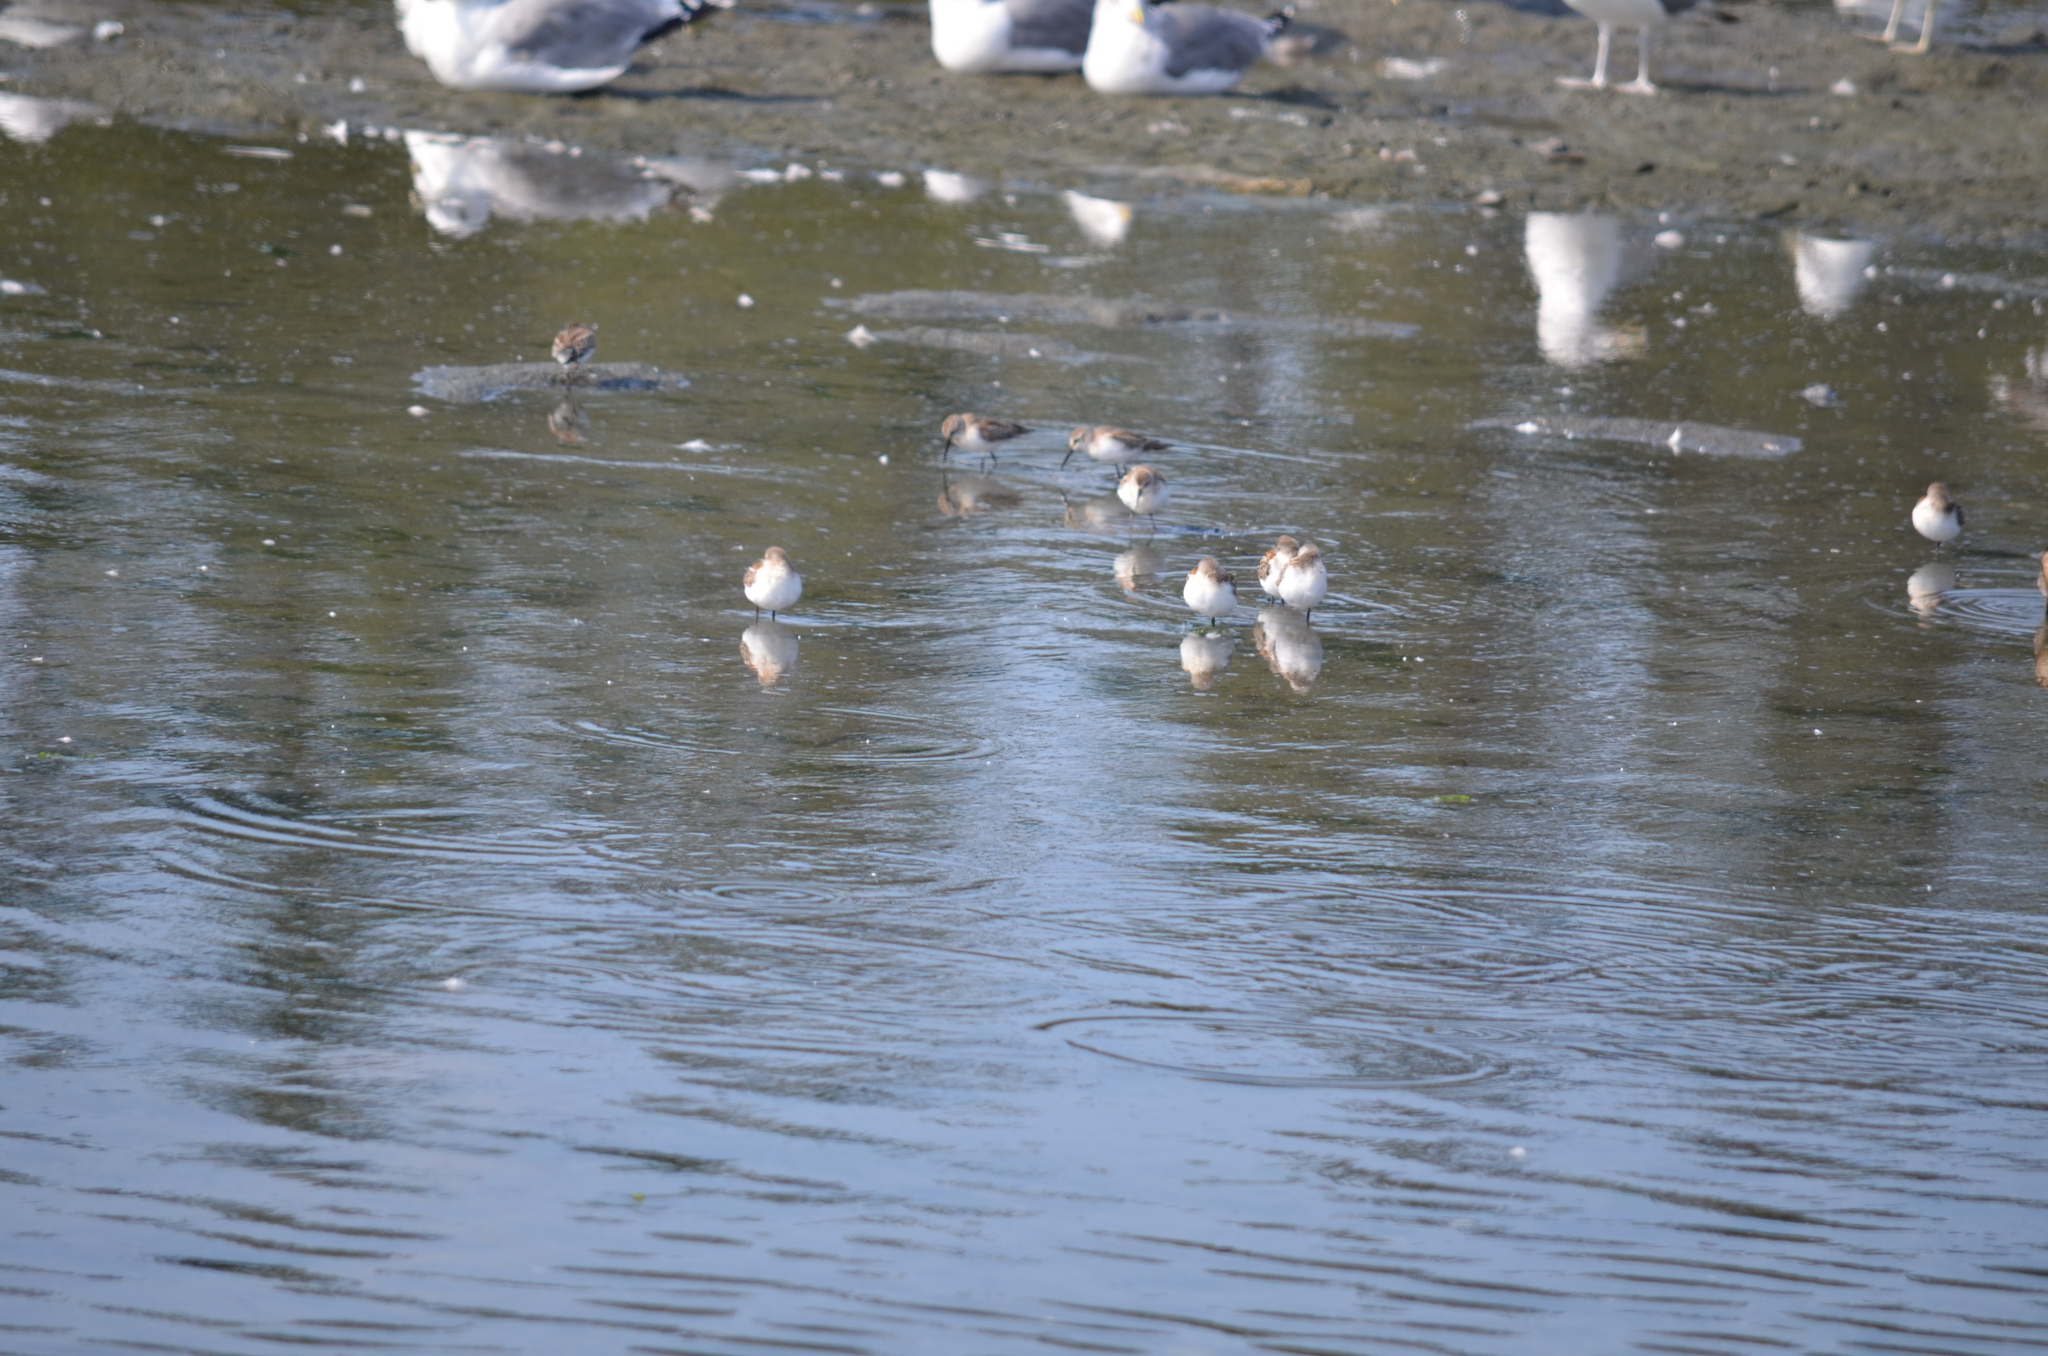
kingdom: Animalia
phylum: Chordata
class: Aves
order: Charadriiformes
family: Scolopacidae
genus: Calidris
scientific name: Calidris mauri
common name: Western sandpiper
